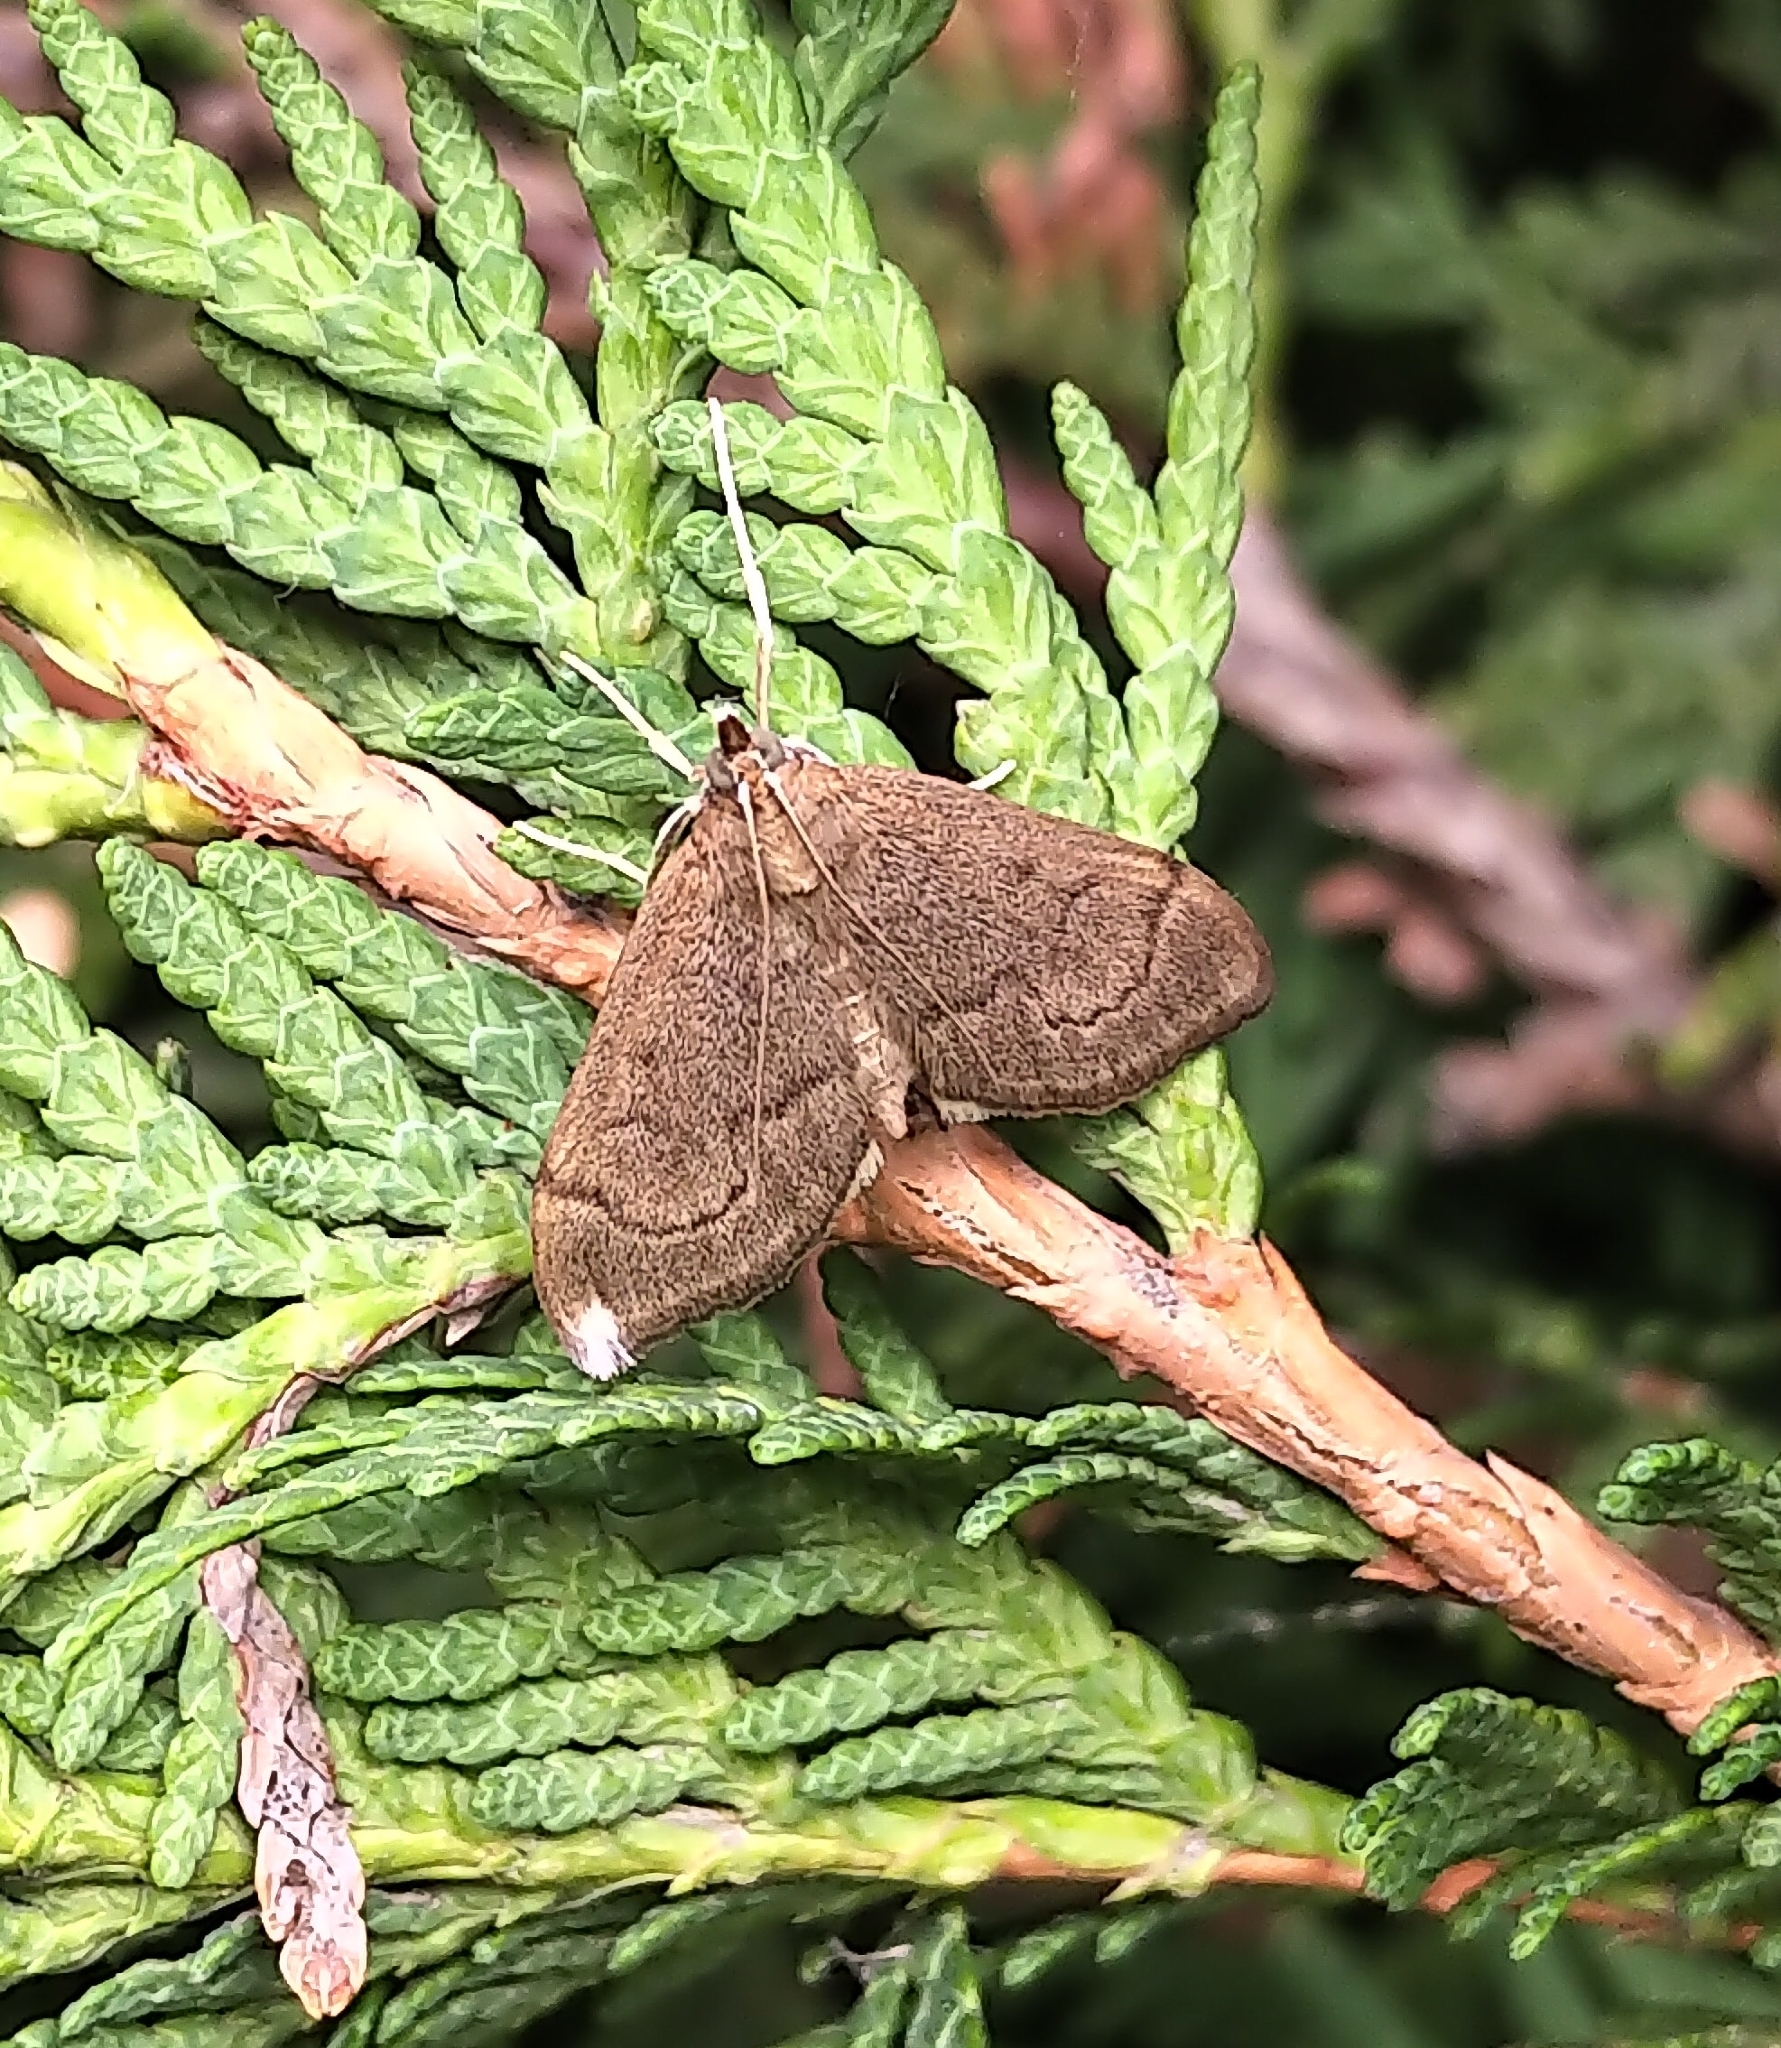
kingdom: Animalia
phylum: Arthropoda
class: Insecta
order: Lepidoptera
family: Crambidae
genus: Anania
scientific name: Anania mysippusalis
